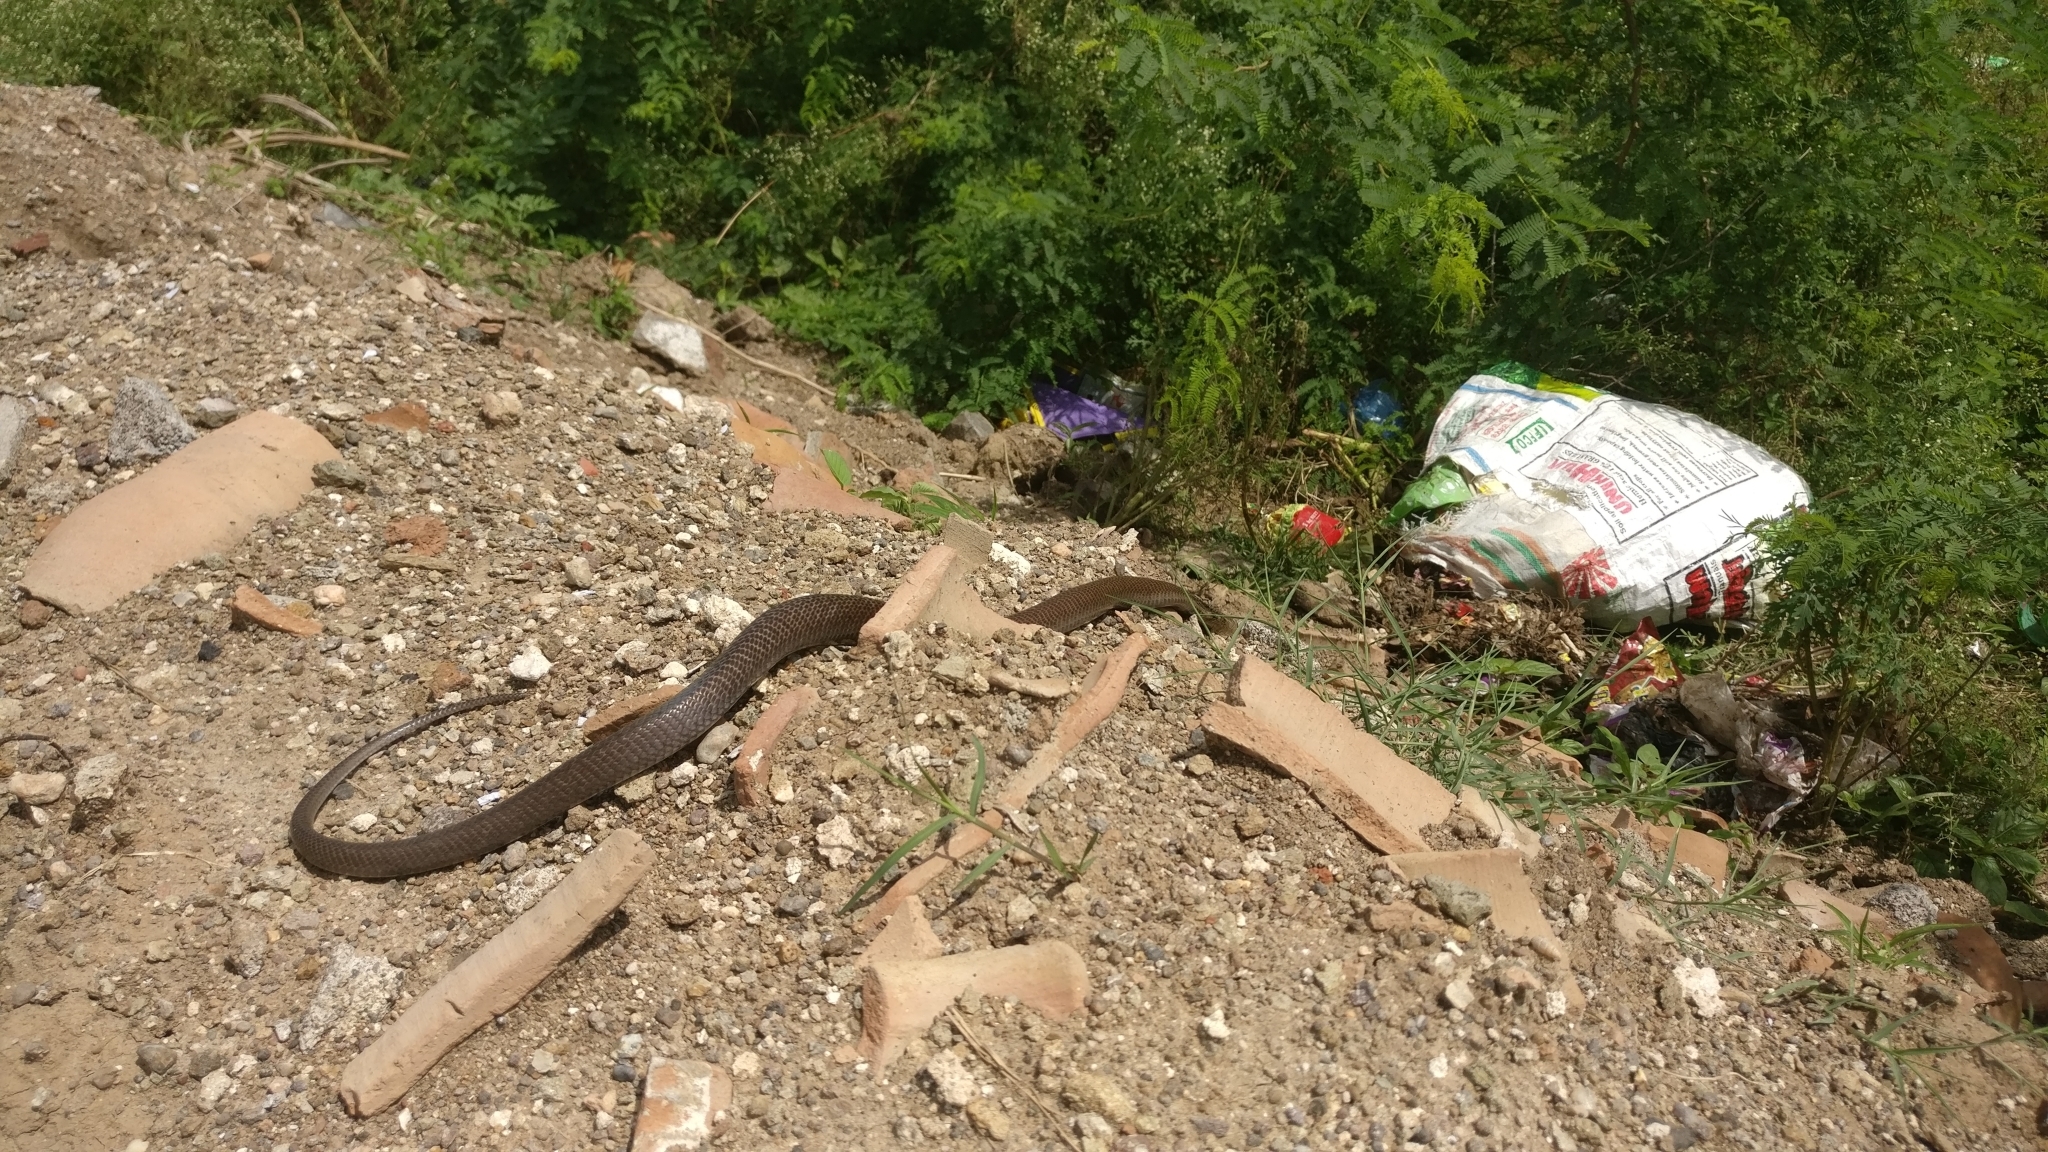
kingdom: Animalia
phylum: Chordata
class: Squamata
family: Elapidae
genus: Naja
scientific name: Naja naja
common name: Indian cobra
